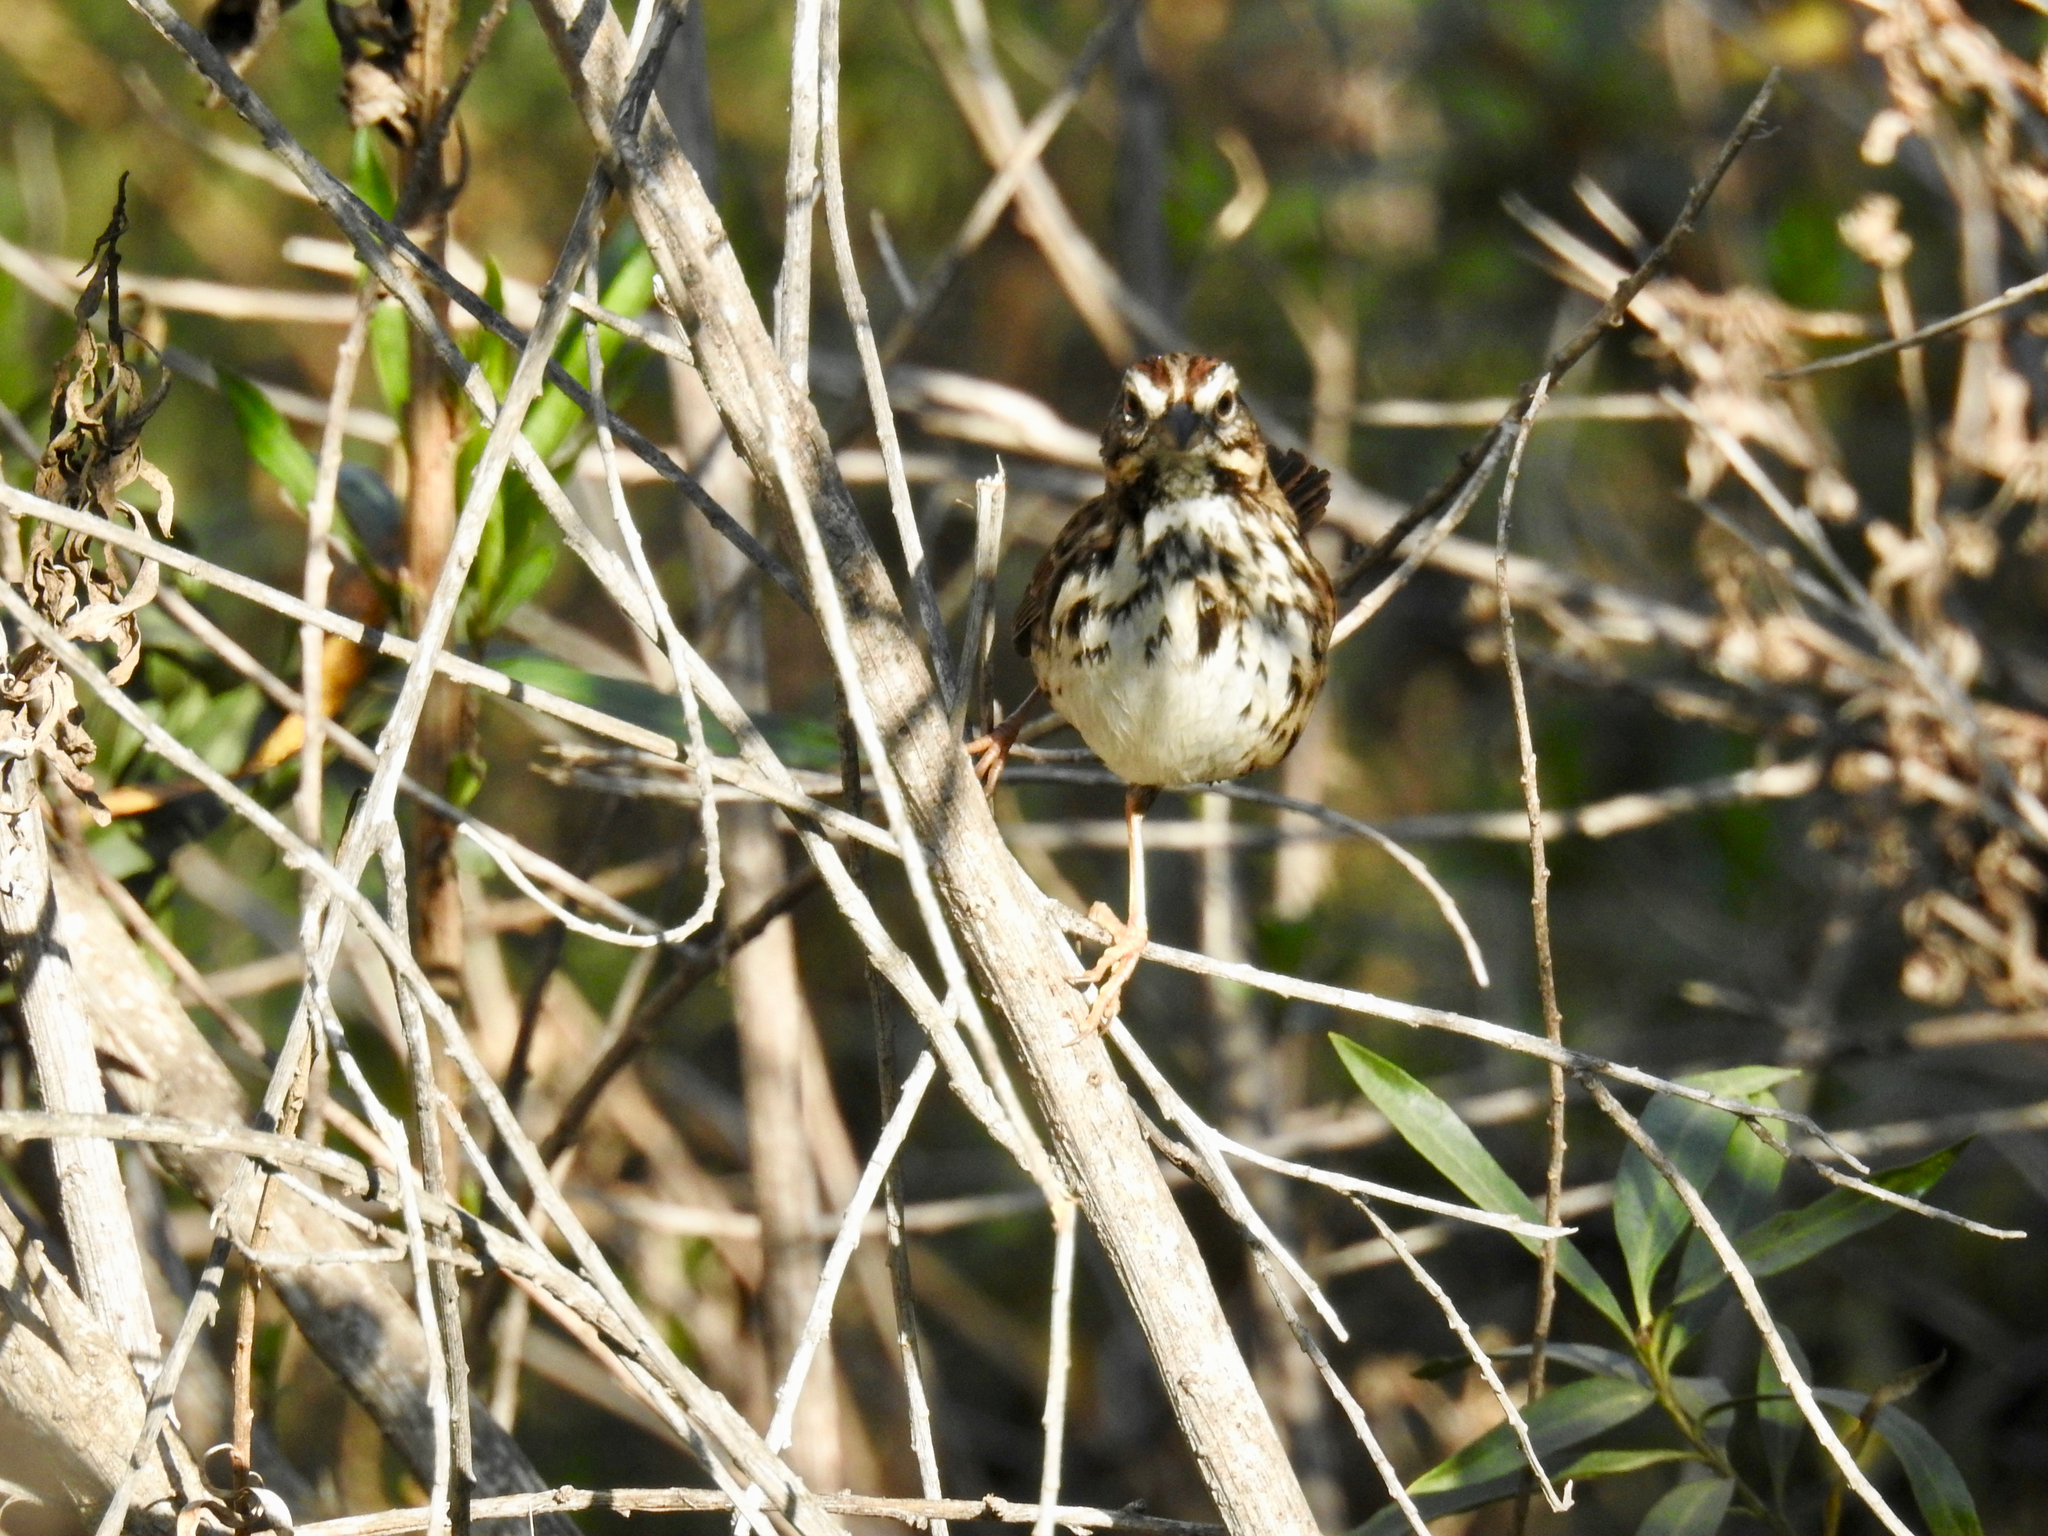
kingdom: Animalia
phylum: Chordata
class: Aves
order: Passeriformes
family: Passerellidae
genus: Melospiza
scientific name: Melospiza melodia
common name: Song sparrow
